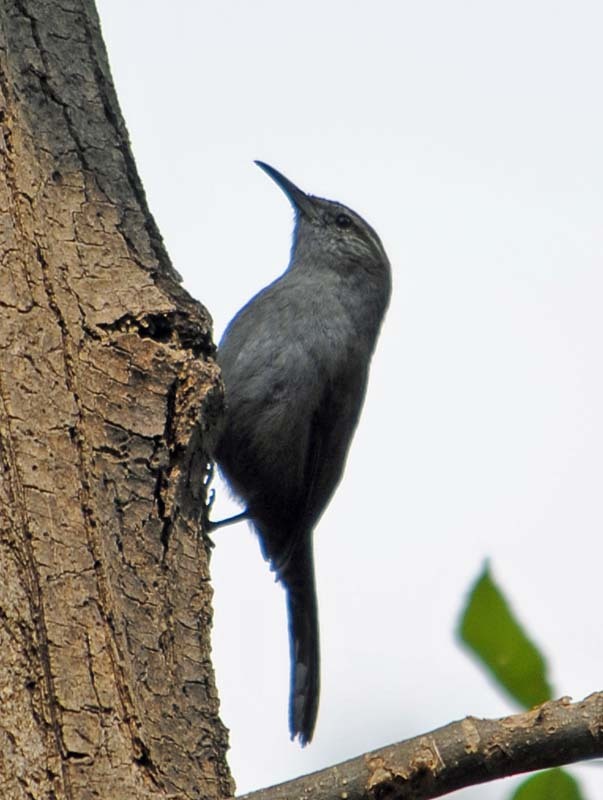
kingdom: Animalia
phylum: Chordata
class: Aves
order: Passeriformes
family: Troglodytidae
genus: Thryomanes
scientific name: Thryomanes bewickii
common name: Bewick's wren
